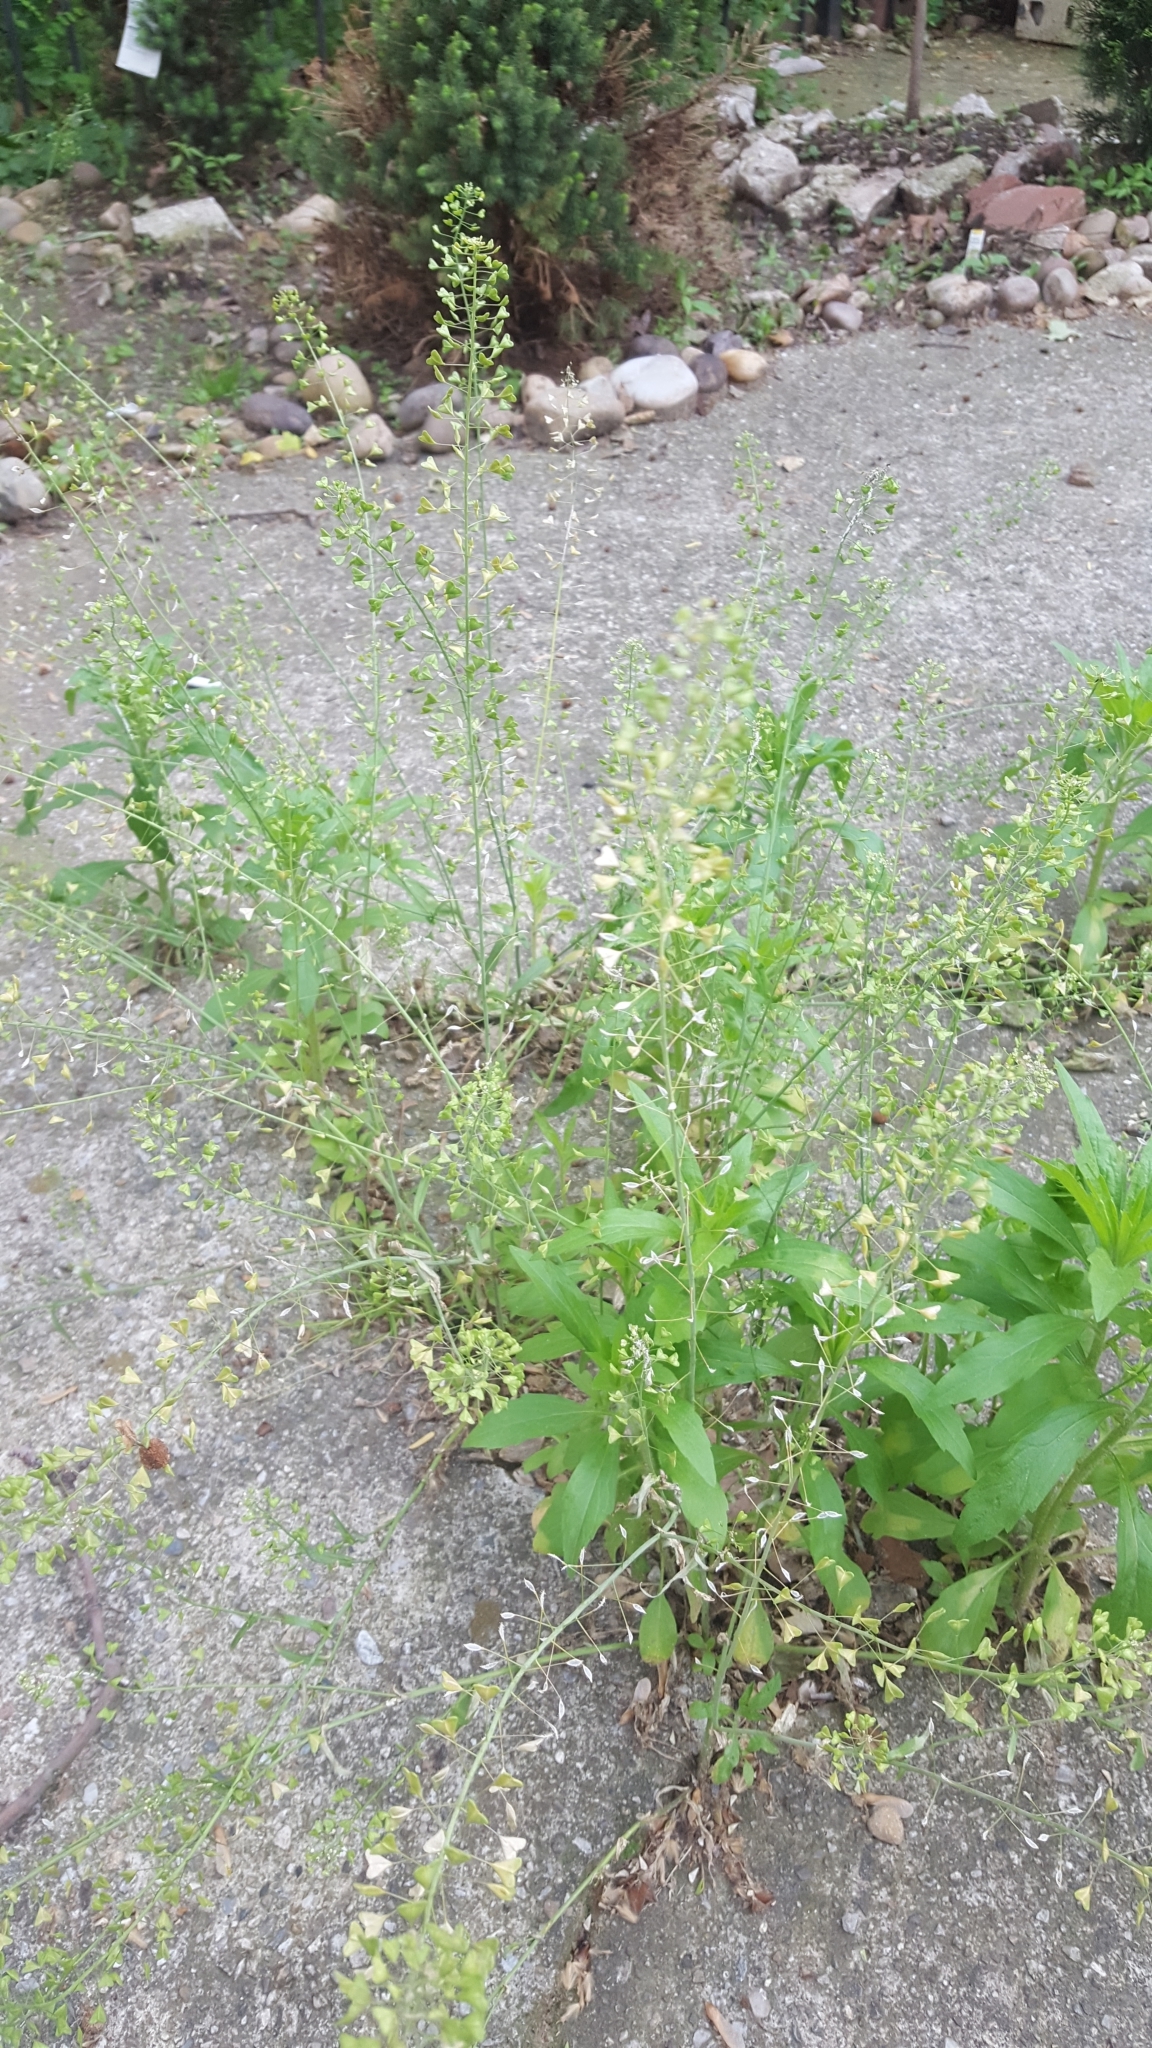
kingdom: Plantae
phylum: Tracheophyta
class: Magnoliopsida
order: Brassicales
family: Brassicaceae
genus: Capsella
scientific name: Capsella bursa-pastoris
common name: Shepherd's purse
